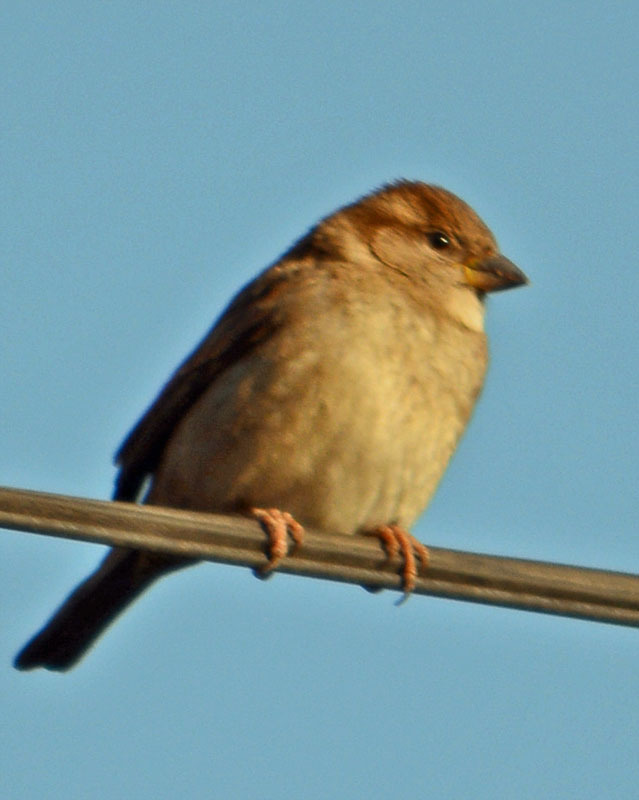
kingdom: Animalia
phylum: Chordata
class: Aves
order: Passeriformes
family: Passeridae
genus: Passer
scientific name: Passer domesticus
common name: House sparrow
